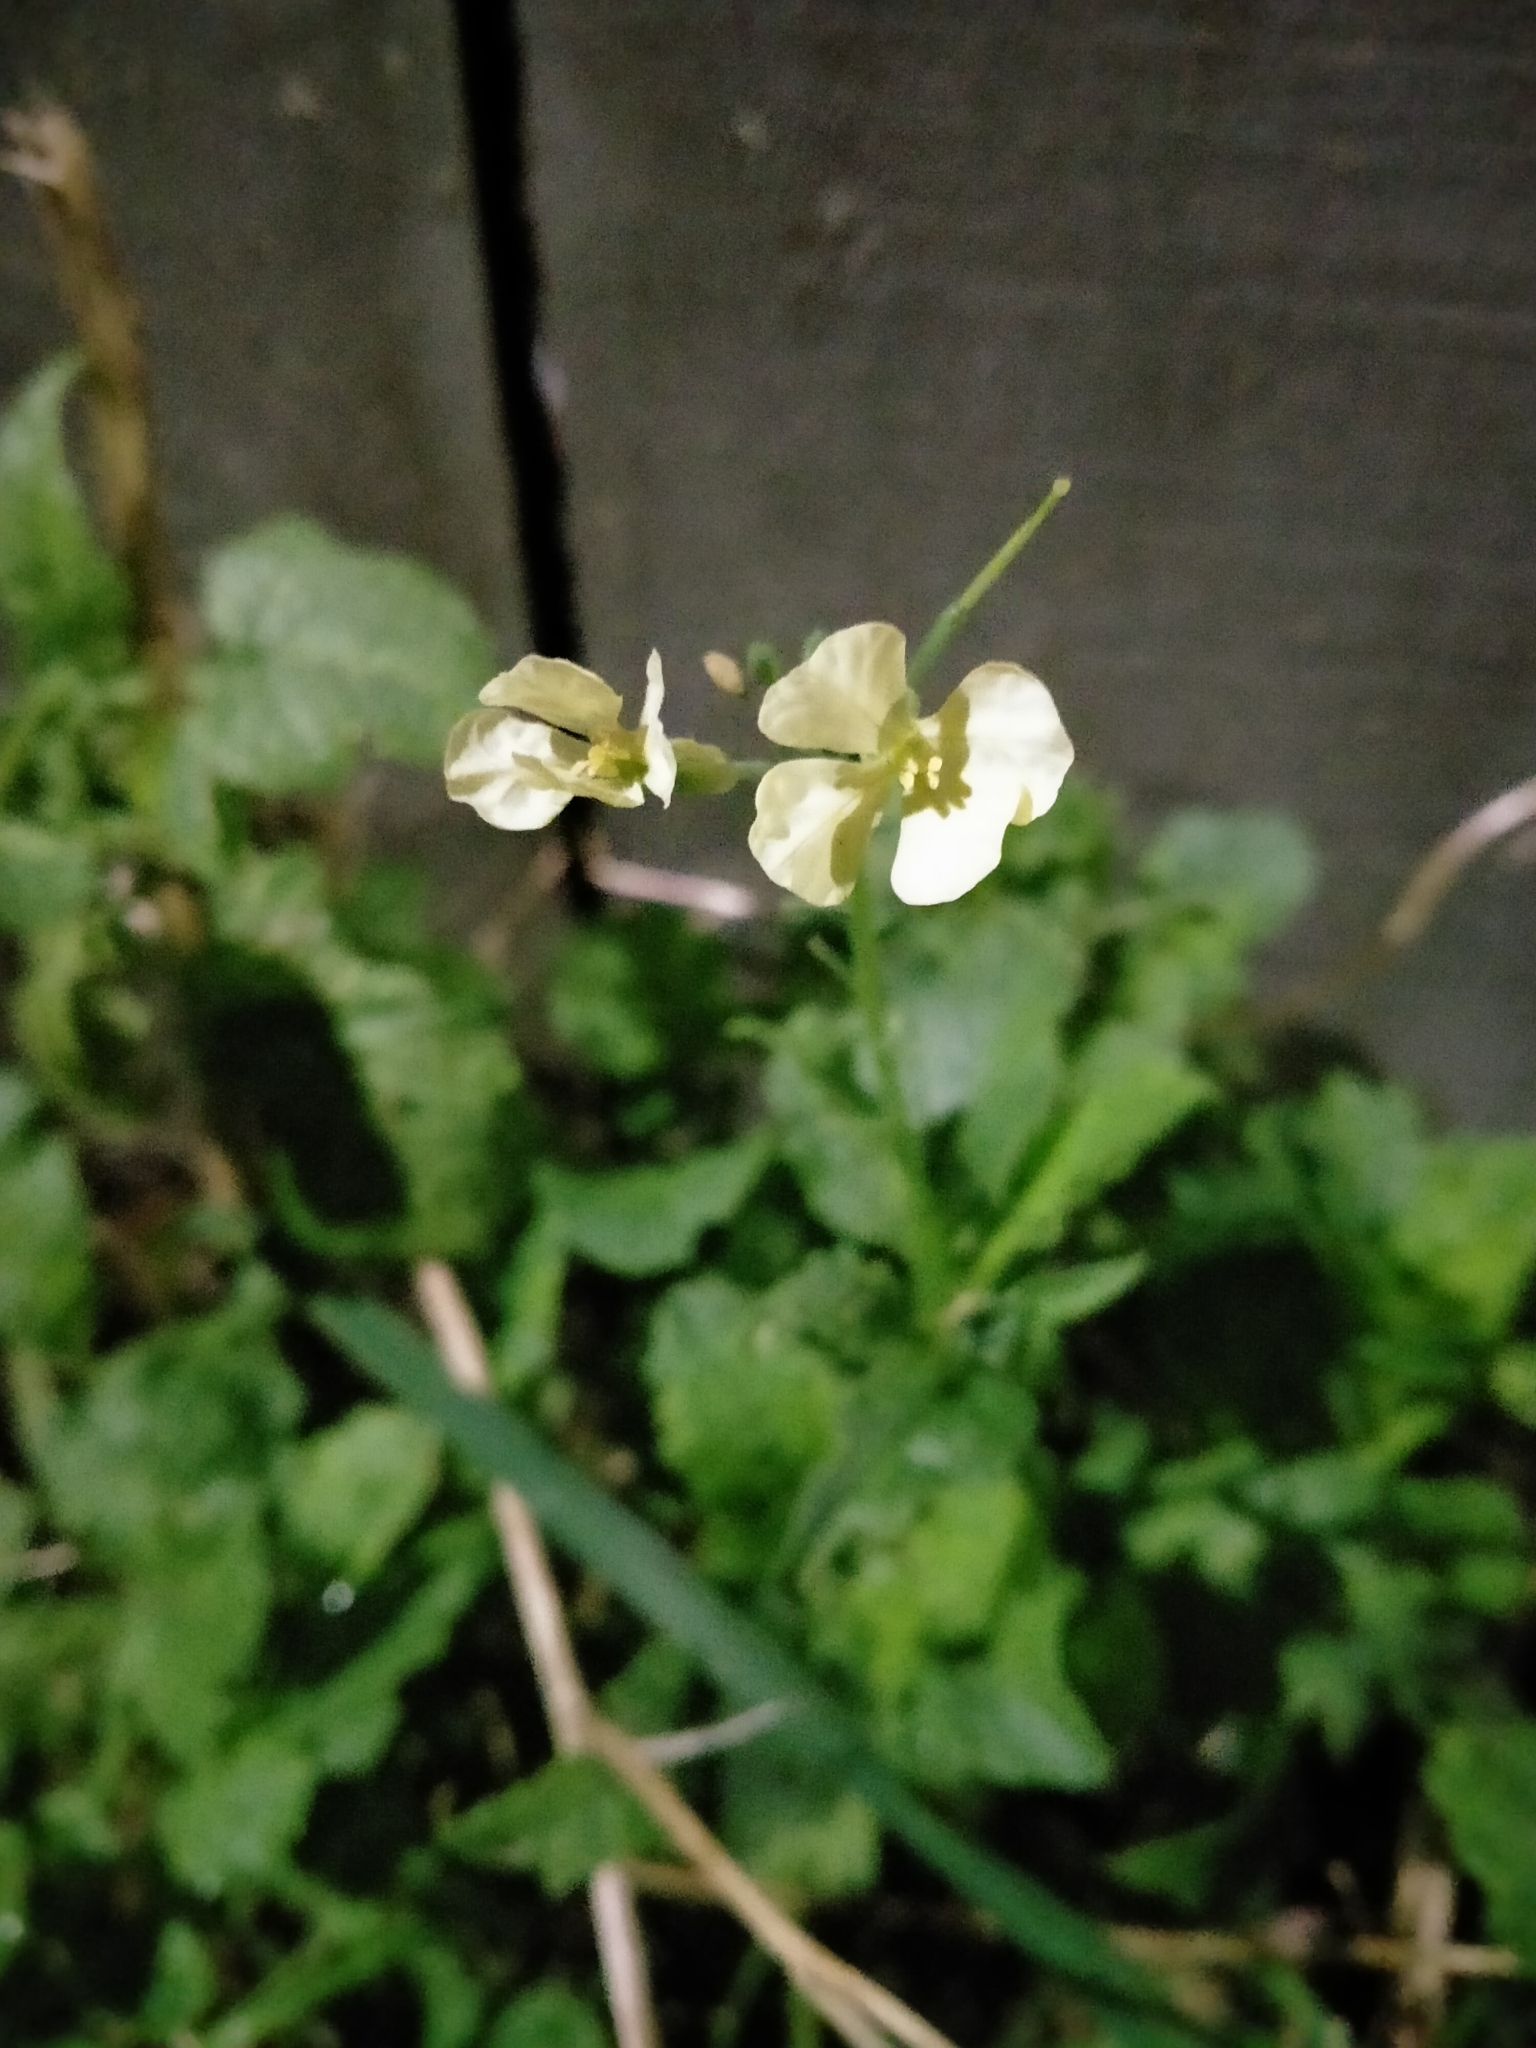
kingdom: Plantae
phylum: Tracheophyta
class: Magnoliopsida
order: Brassicales
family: Brassicaceae
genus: Raphanus
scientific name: Raphanus raphanistrum
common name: Wild radish
